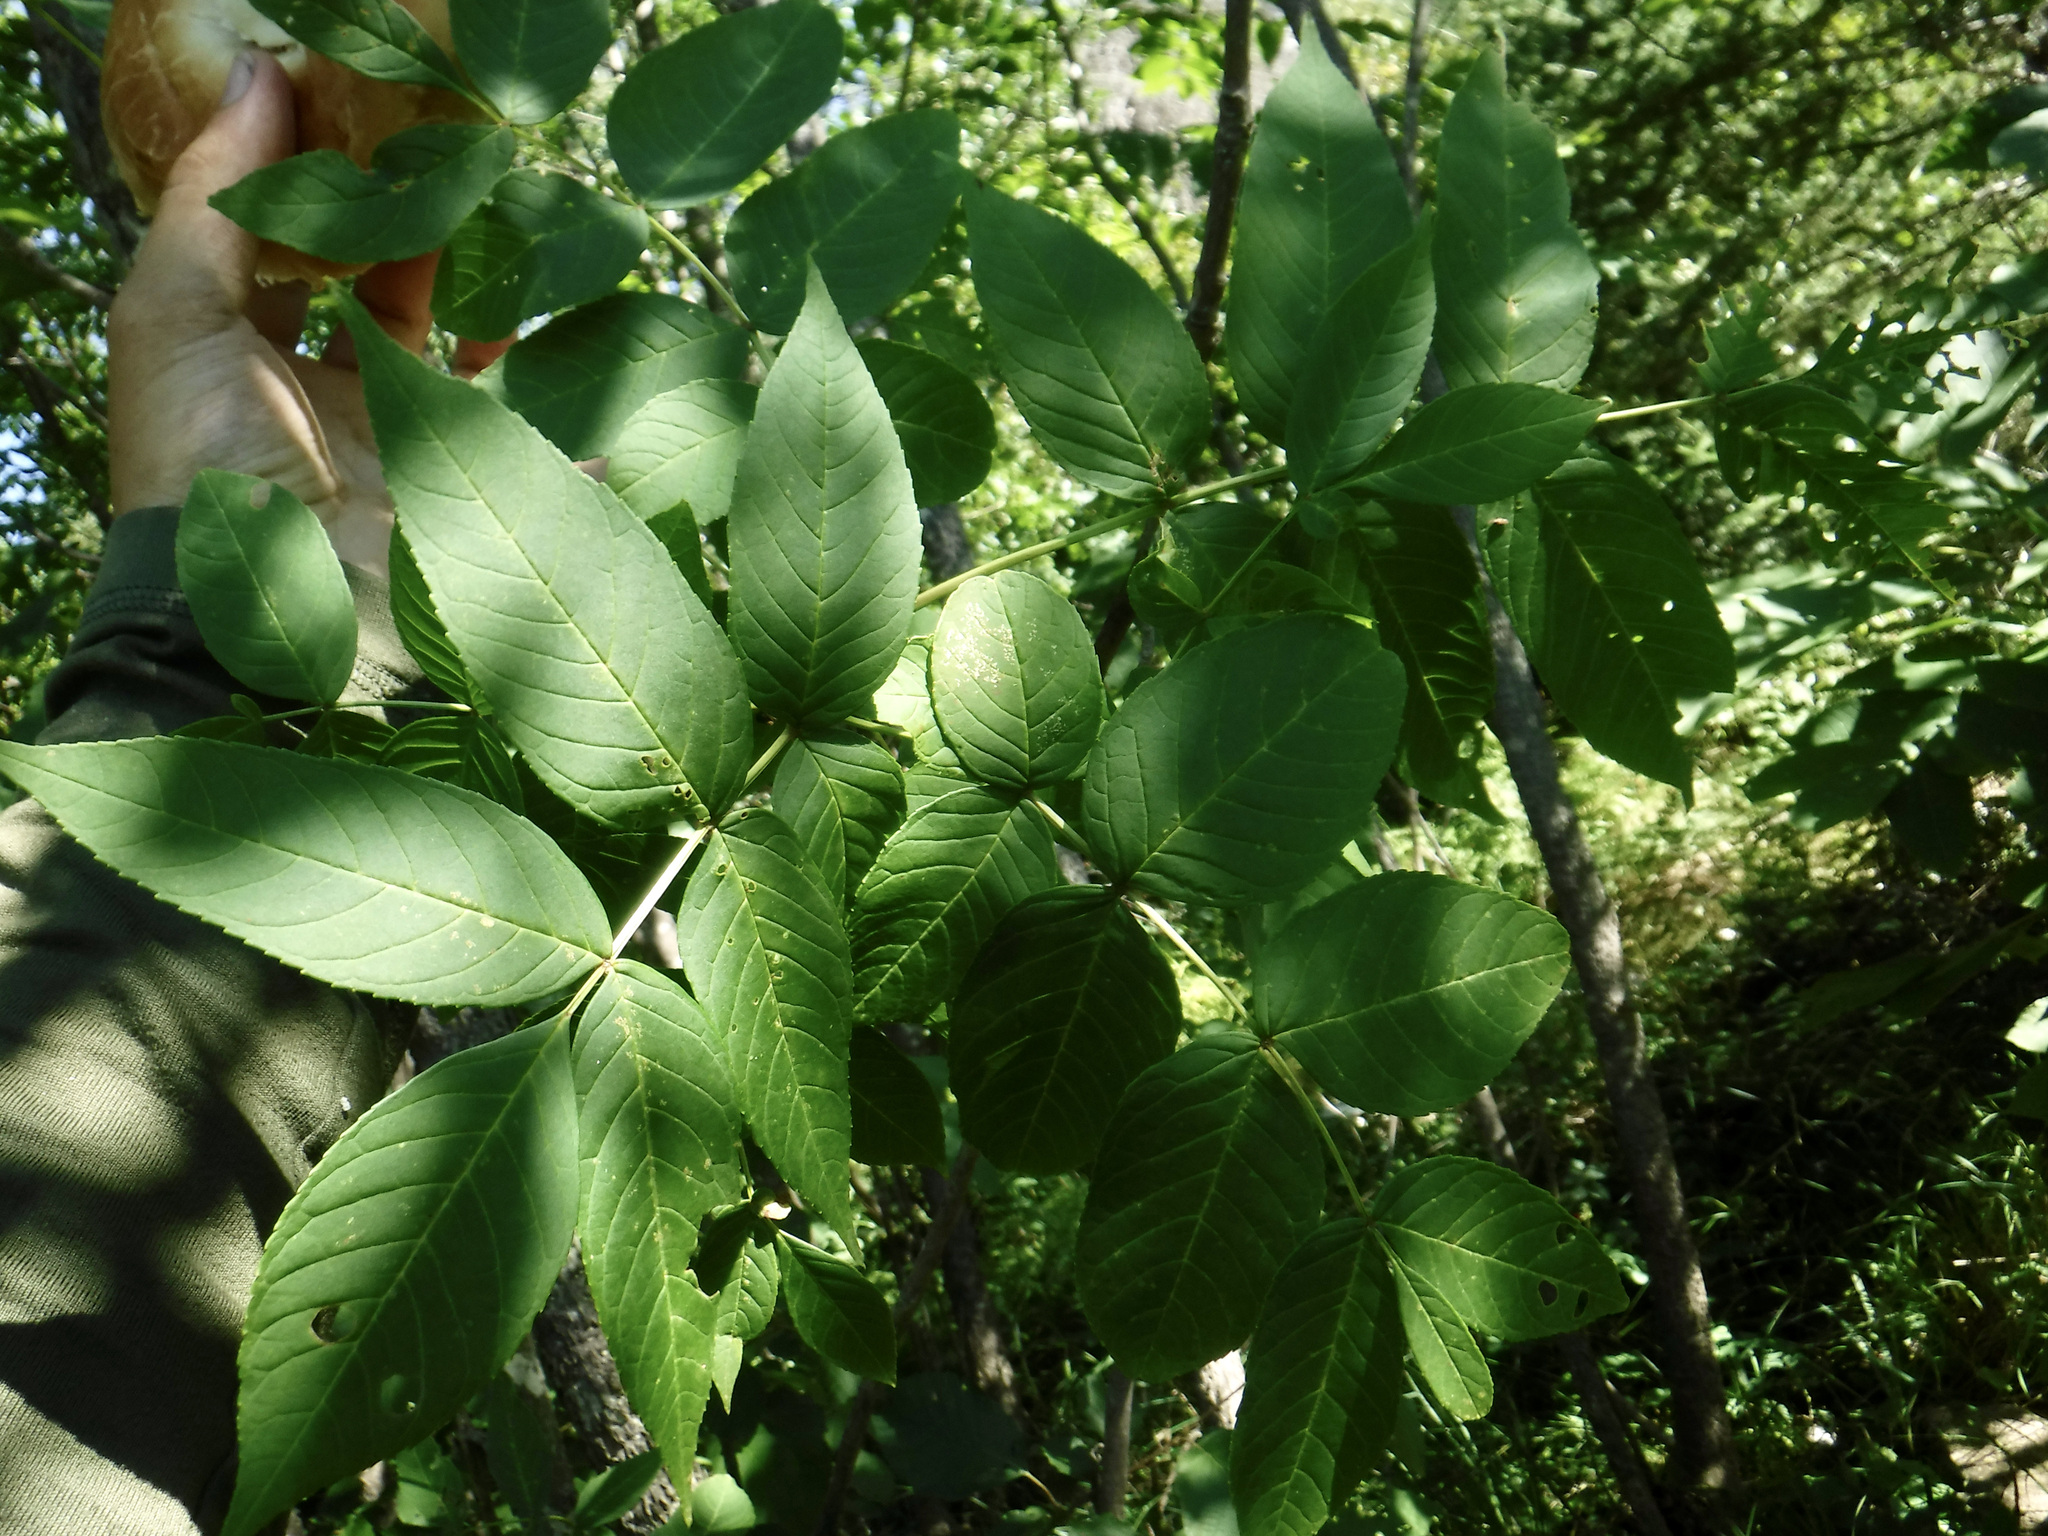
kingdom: Plantae
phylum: Tracheophyta
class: Magnoliopsida
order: Lamiales
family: Oleaceae
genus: Fraxinus
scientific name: Fraxinus nigra
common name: Black ash
